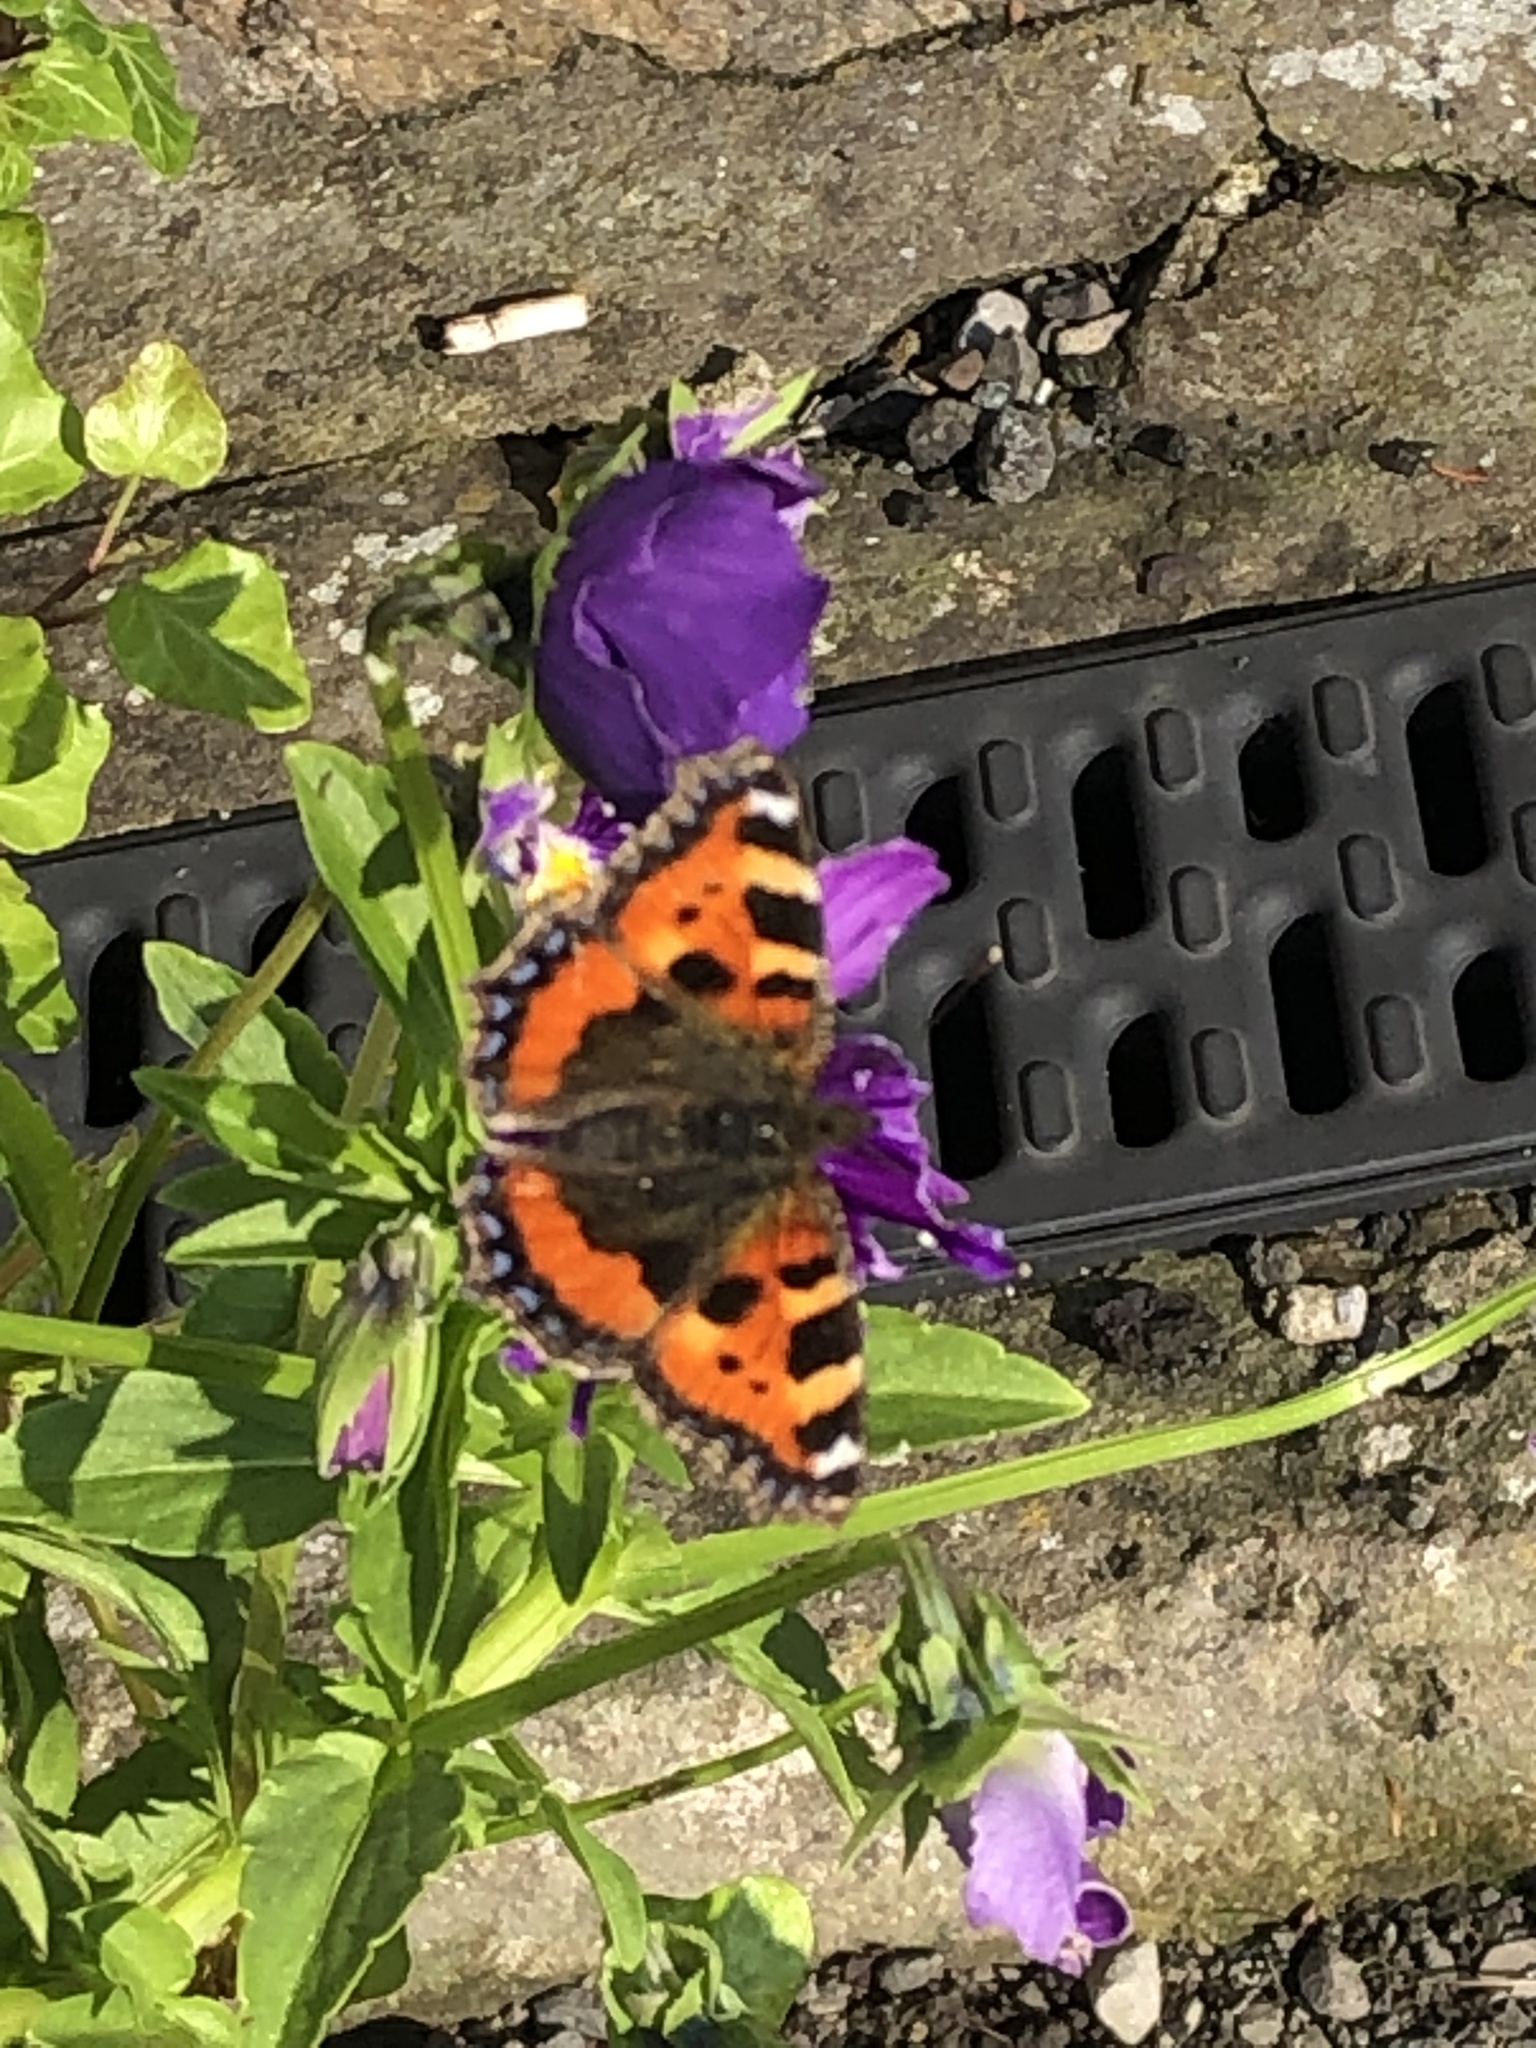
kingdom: Animalia
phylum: Arthropoda
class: Insecta
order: Lepidoptera
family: Nymphalidae
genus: Aglais
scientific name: Aglais urticae
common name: Small tortoiseshell
